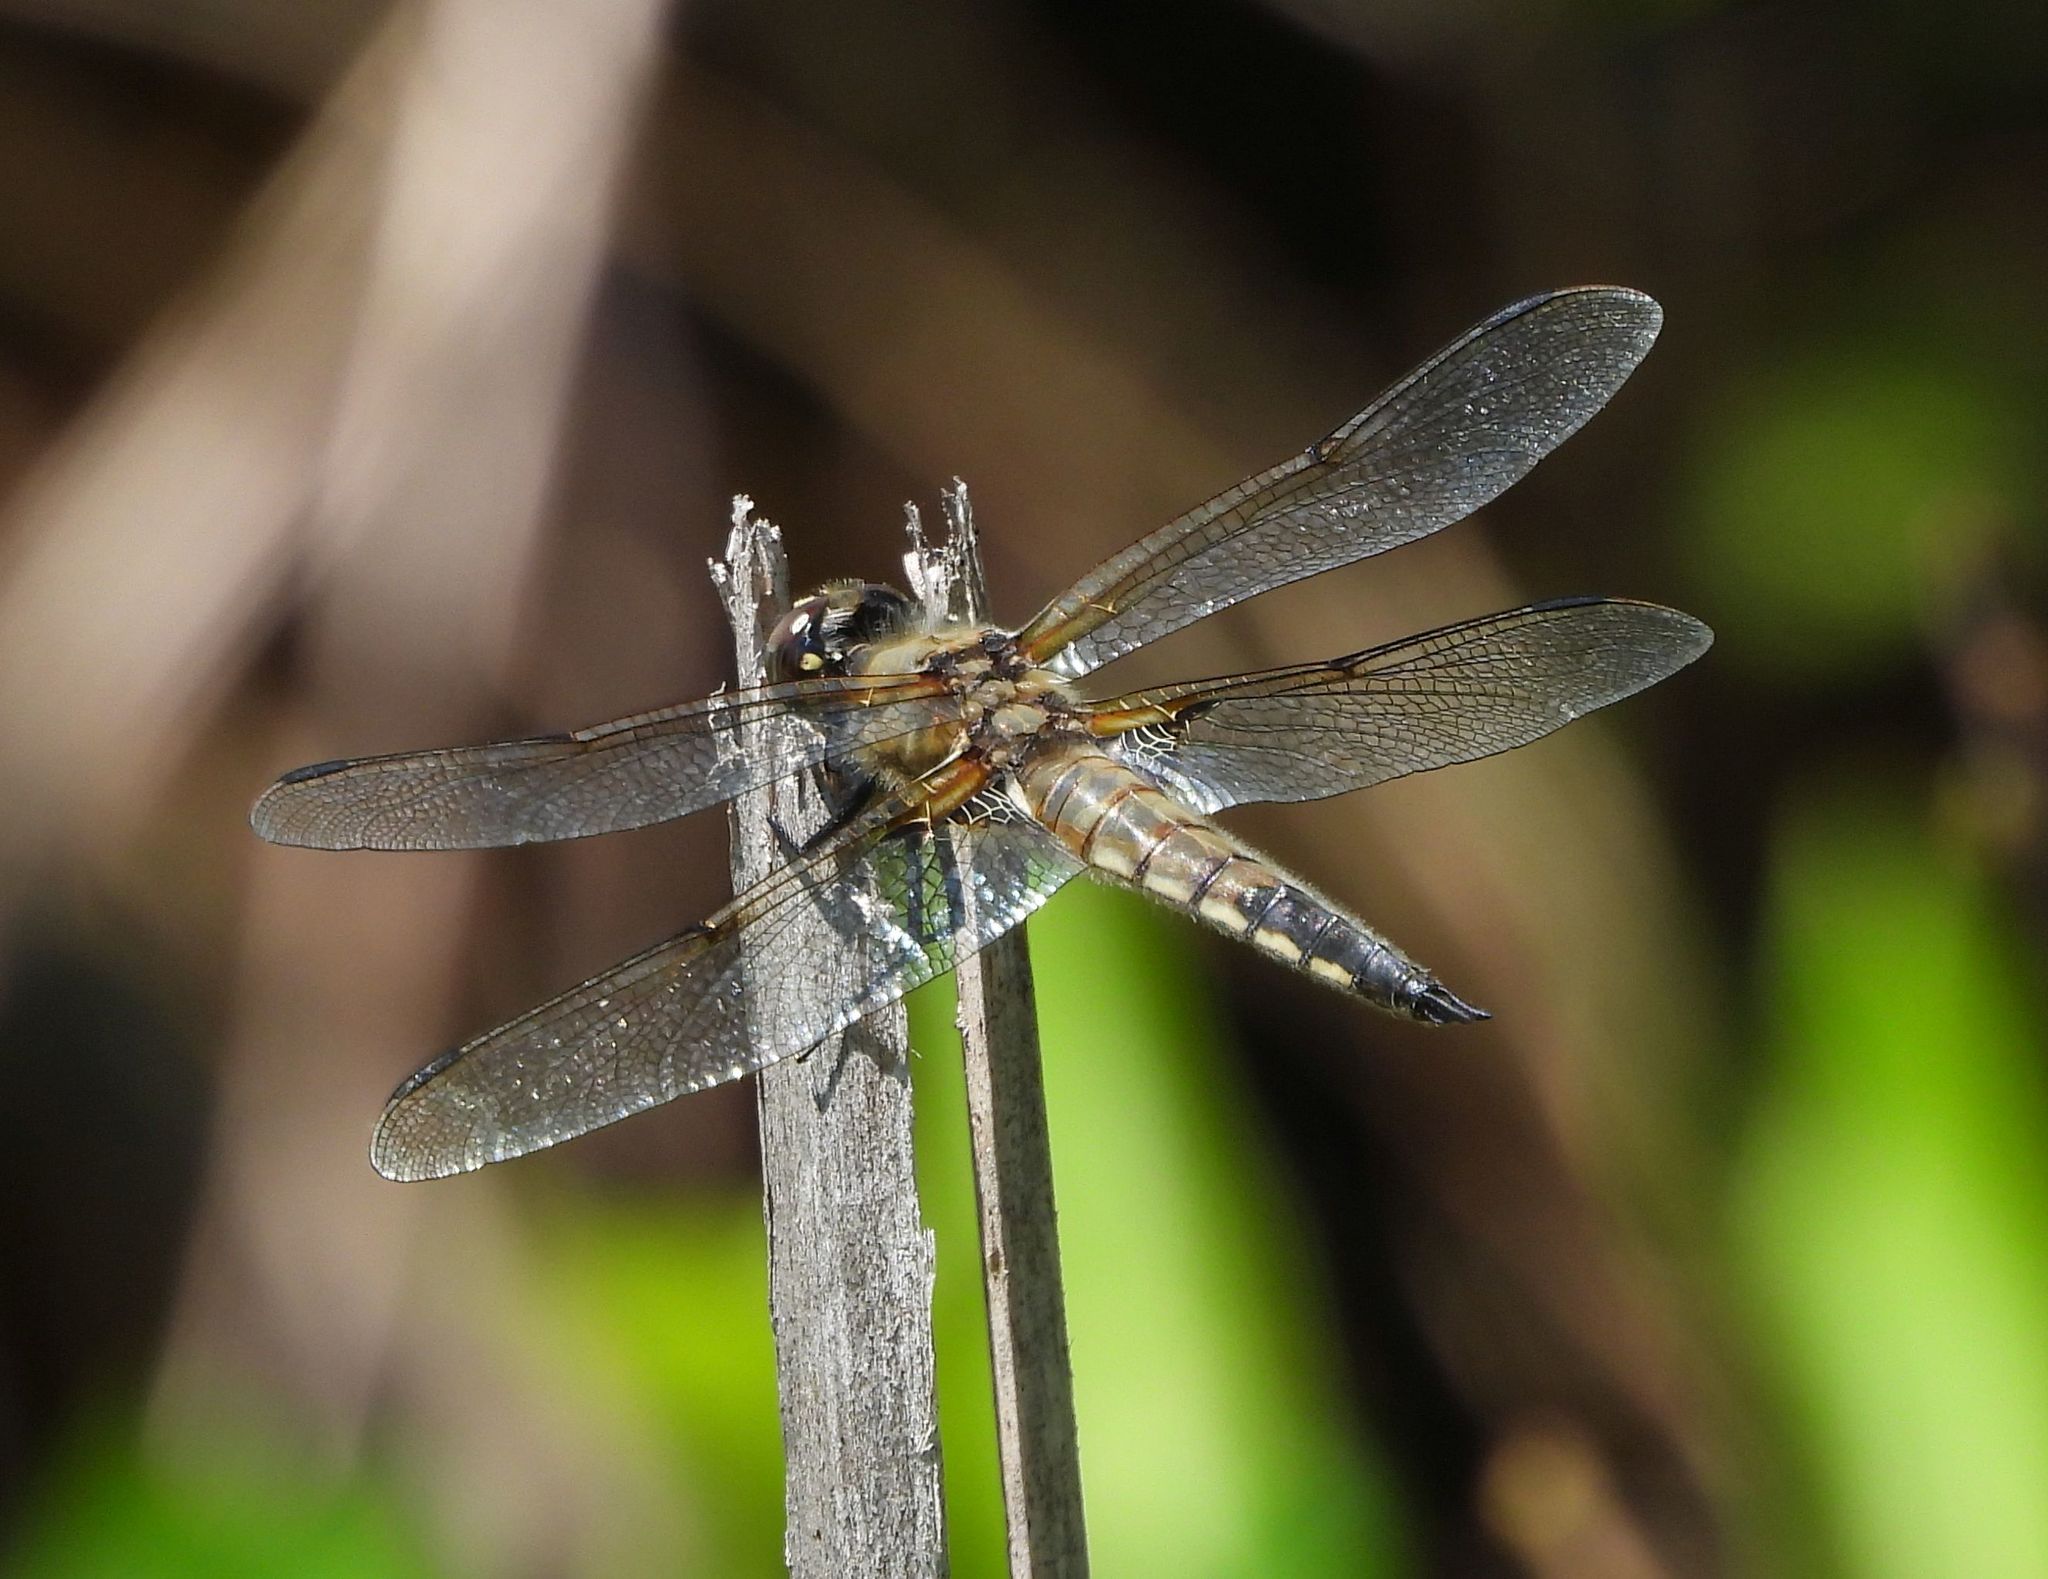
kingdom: Animalia
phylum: Arthropoda
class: Insecta
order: Odonata
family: Libellulidae
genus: Libellula
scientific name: Libellula quadrimaculata
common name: Four-spotted chaser
